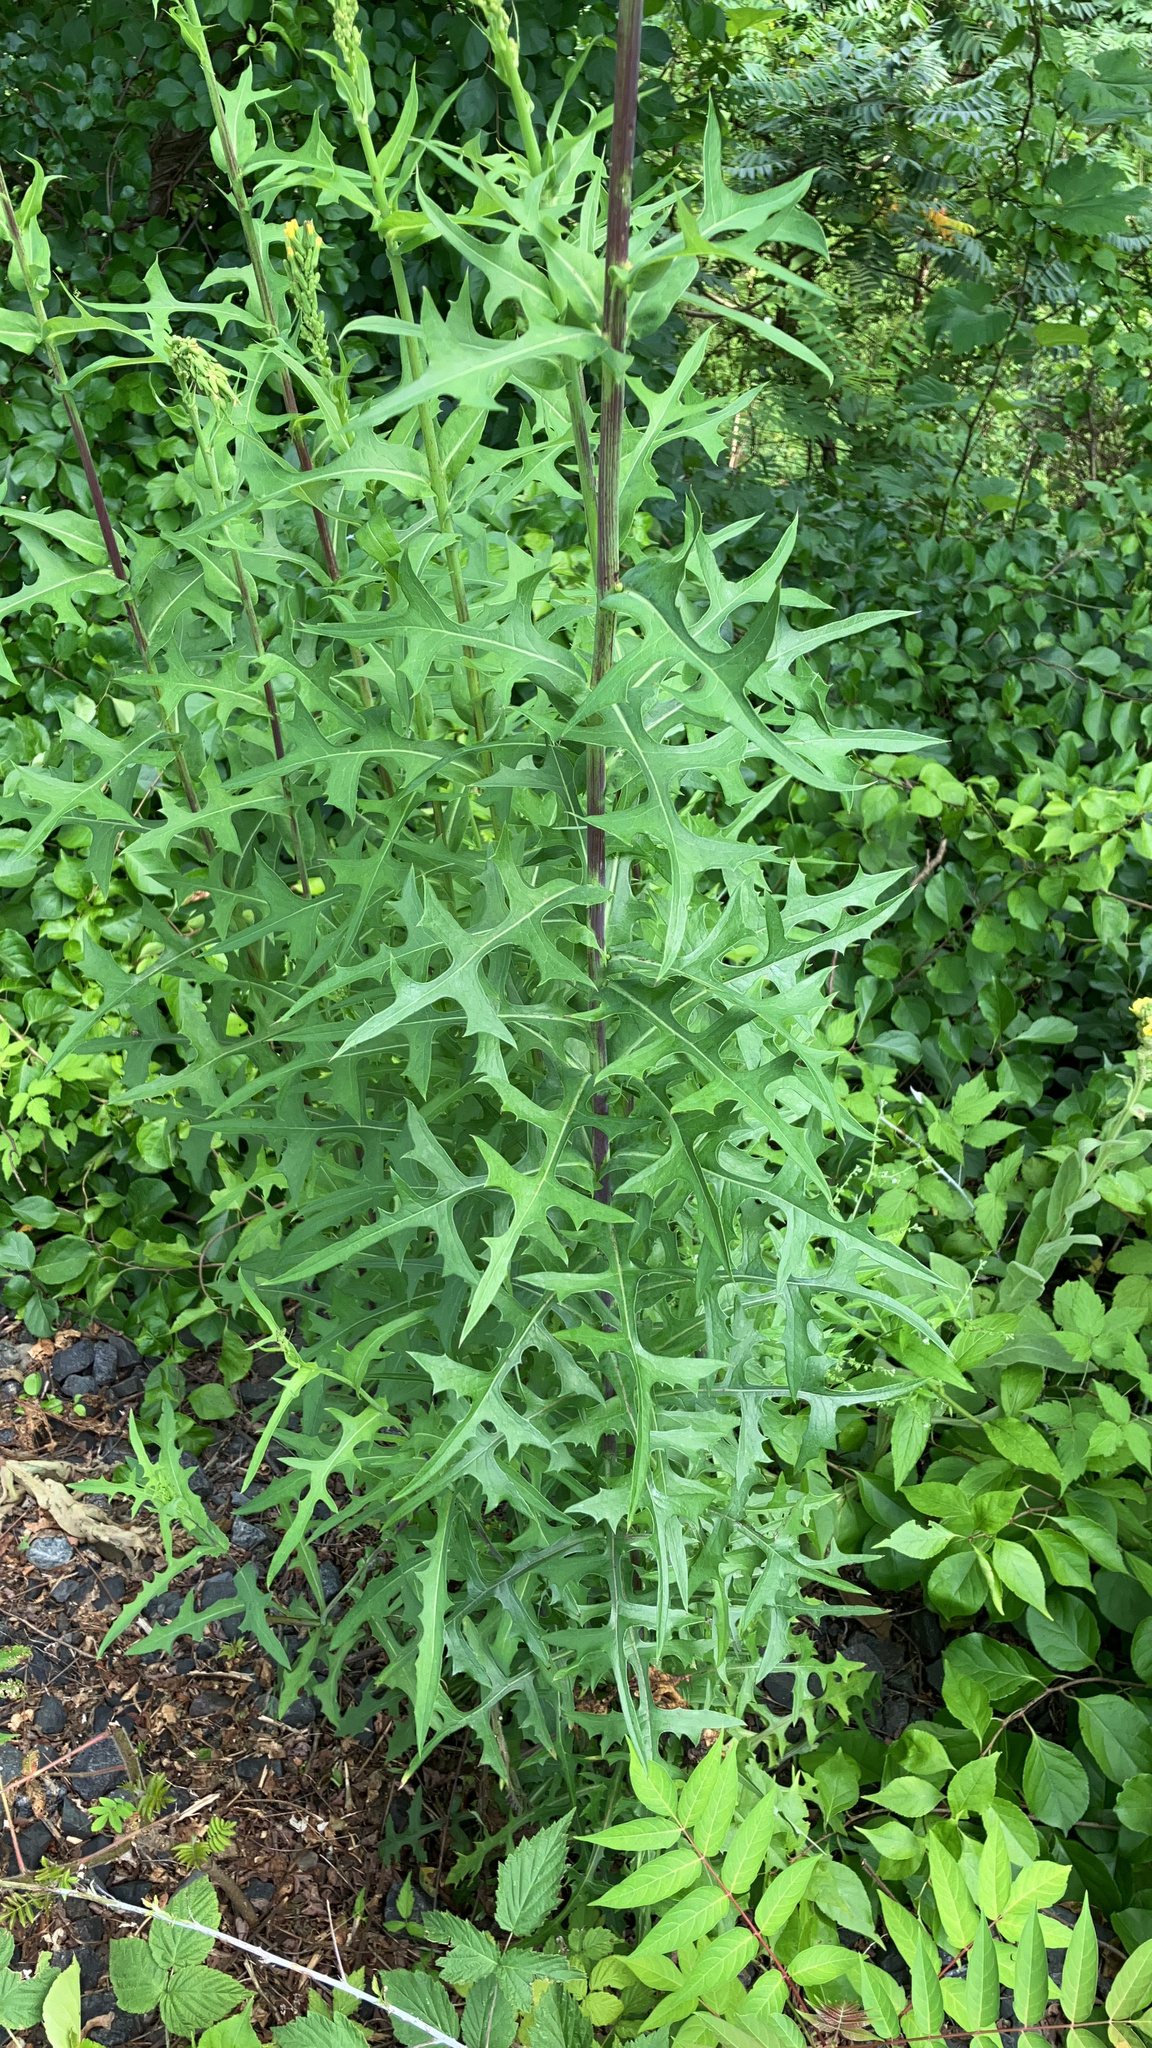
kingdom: Plantae
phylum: Tracheophyta
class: Magnoliopsida
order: Asterales
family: Asteraceae
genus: Lactuca
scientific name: Lactuca canadensis
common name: Canada lettuce
